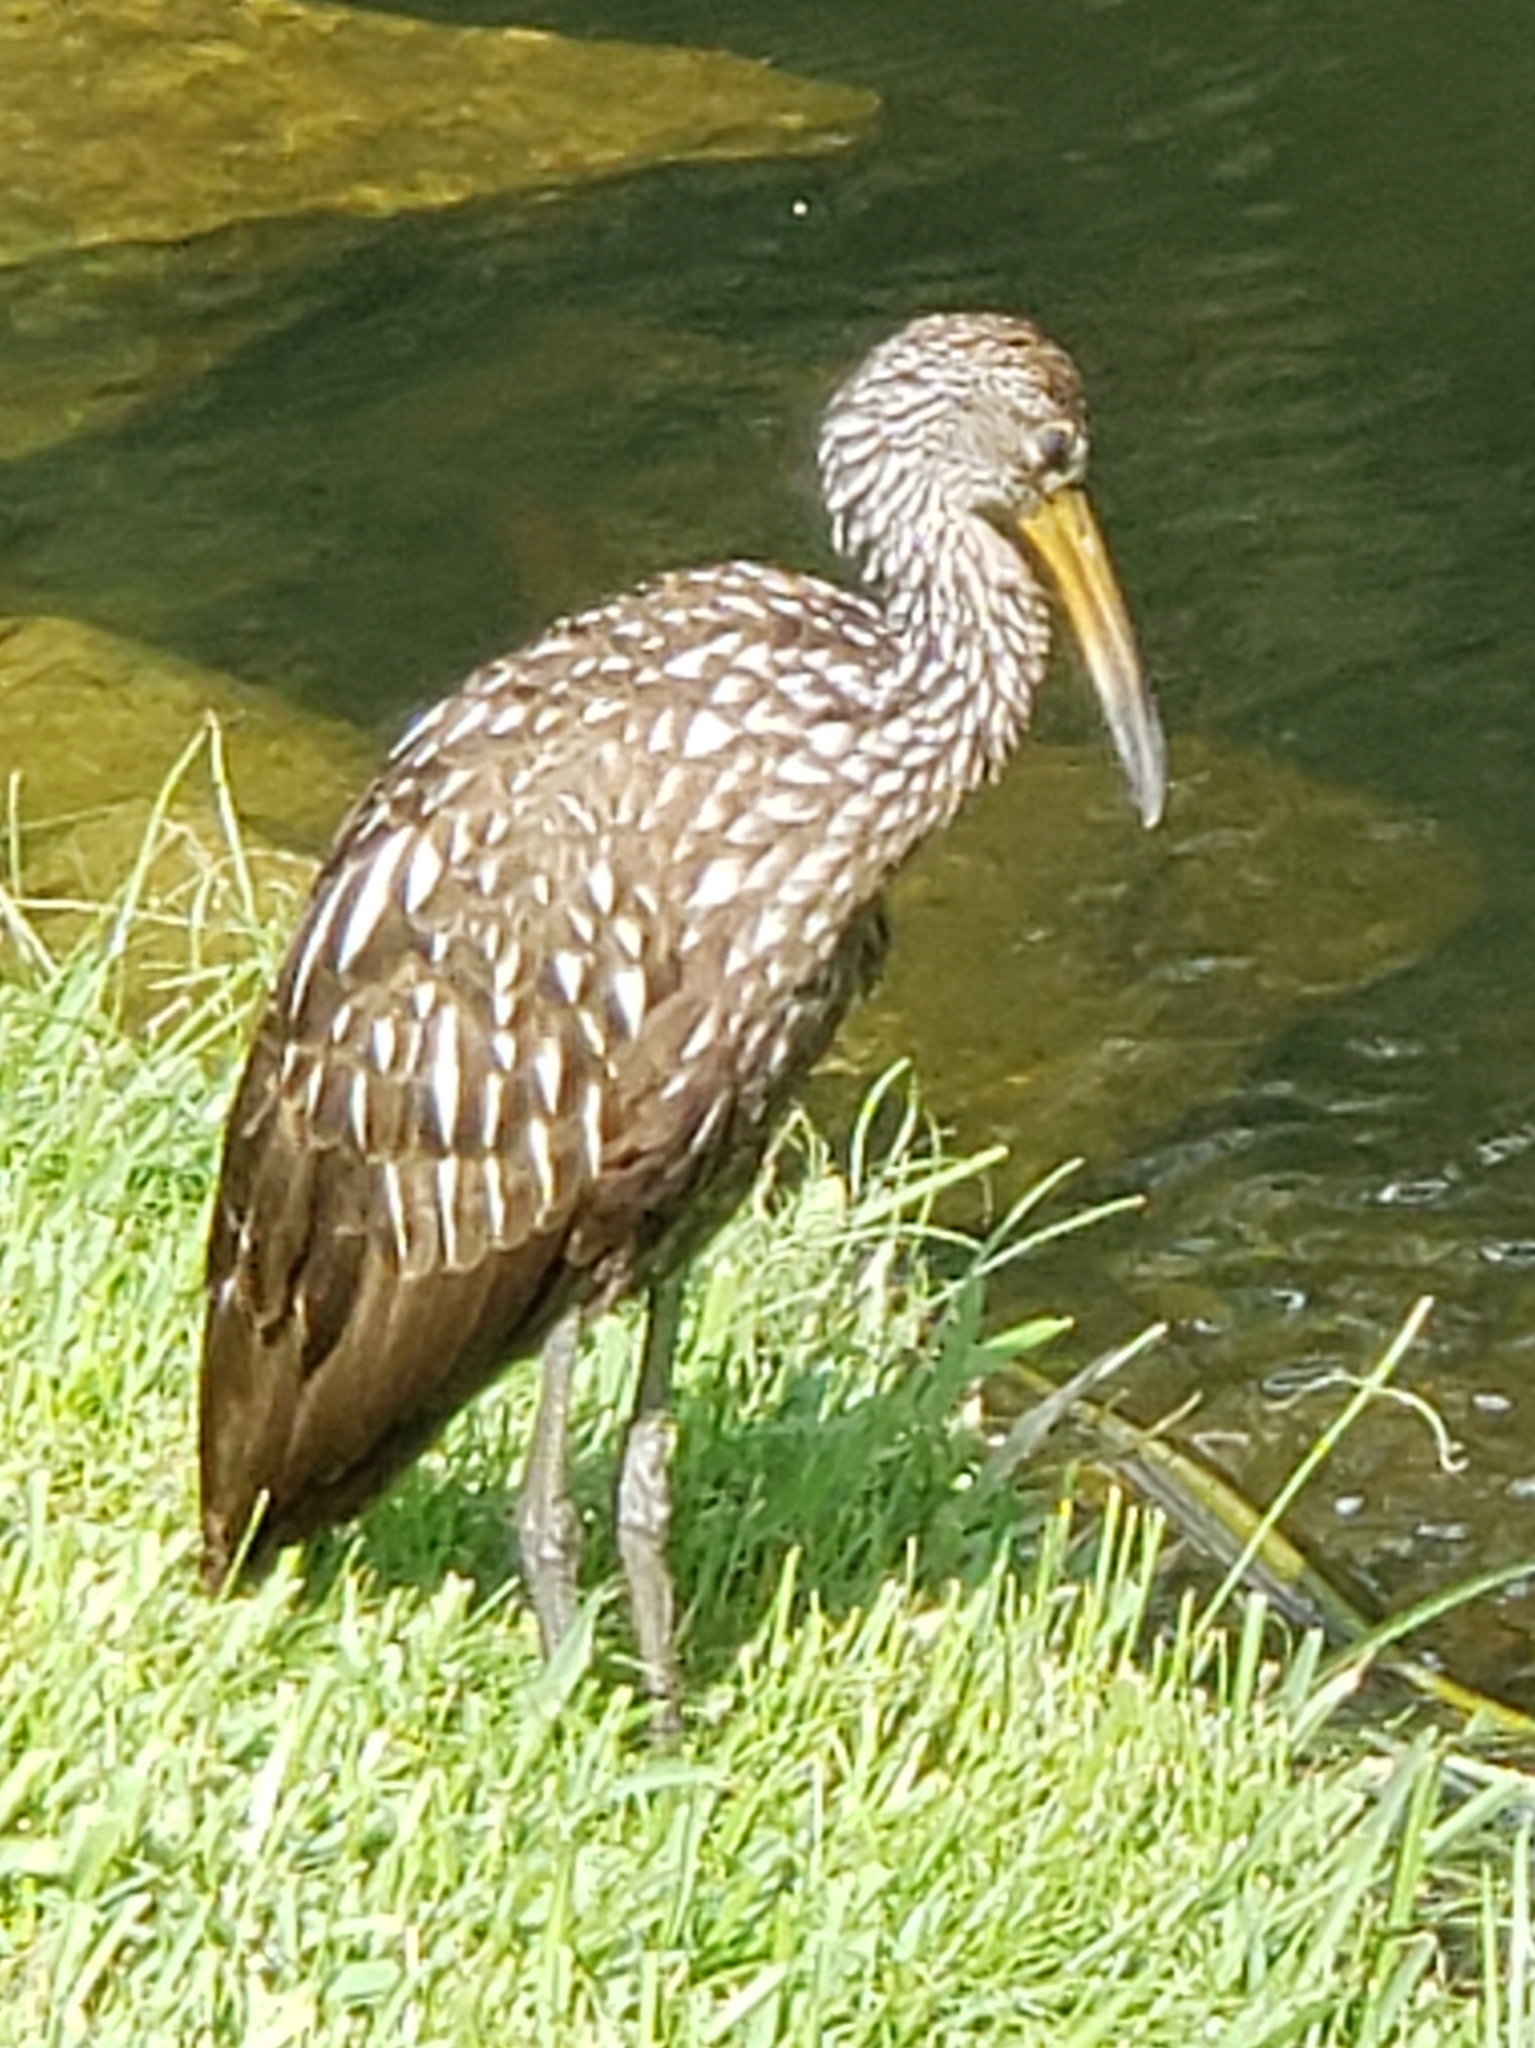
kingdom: Animalia
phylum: Chordata
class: Aves
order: Gruiformes
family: Aramidae
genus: Aramus
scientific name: Aramus guarauna
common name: Limpkin
